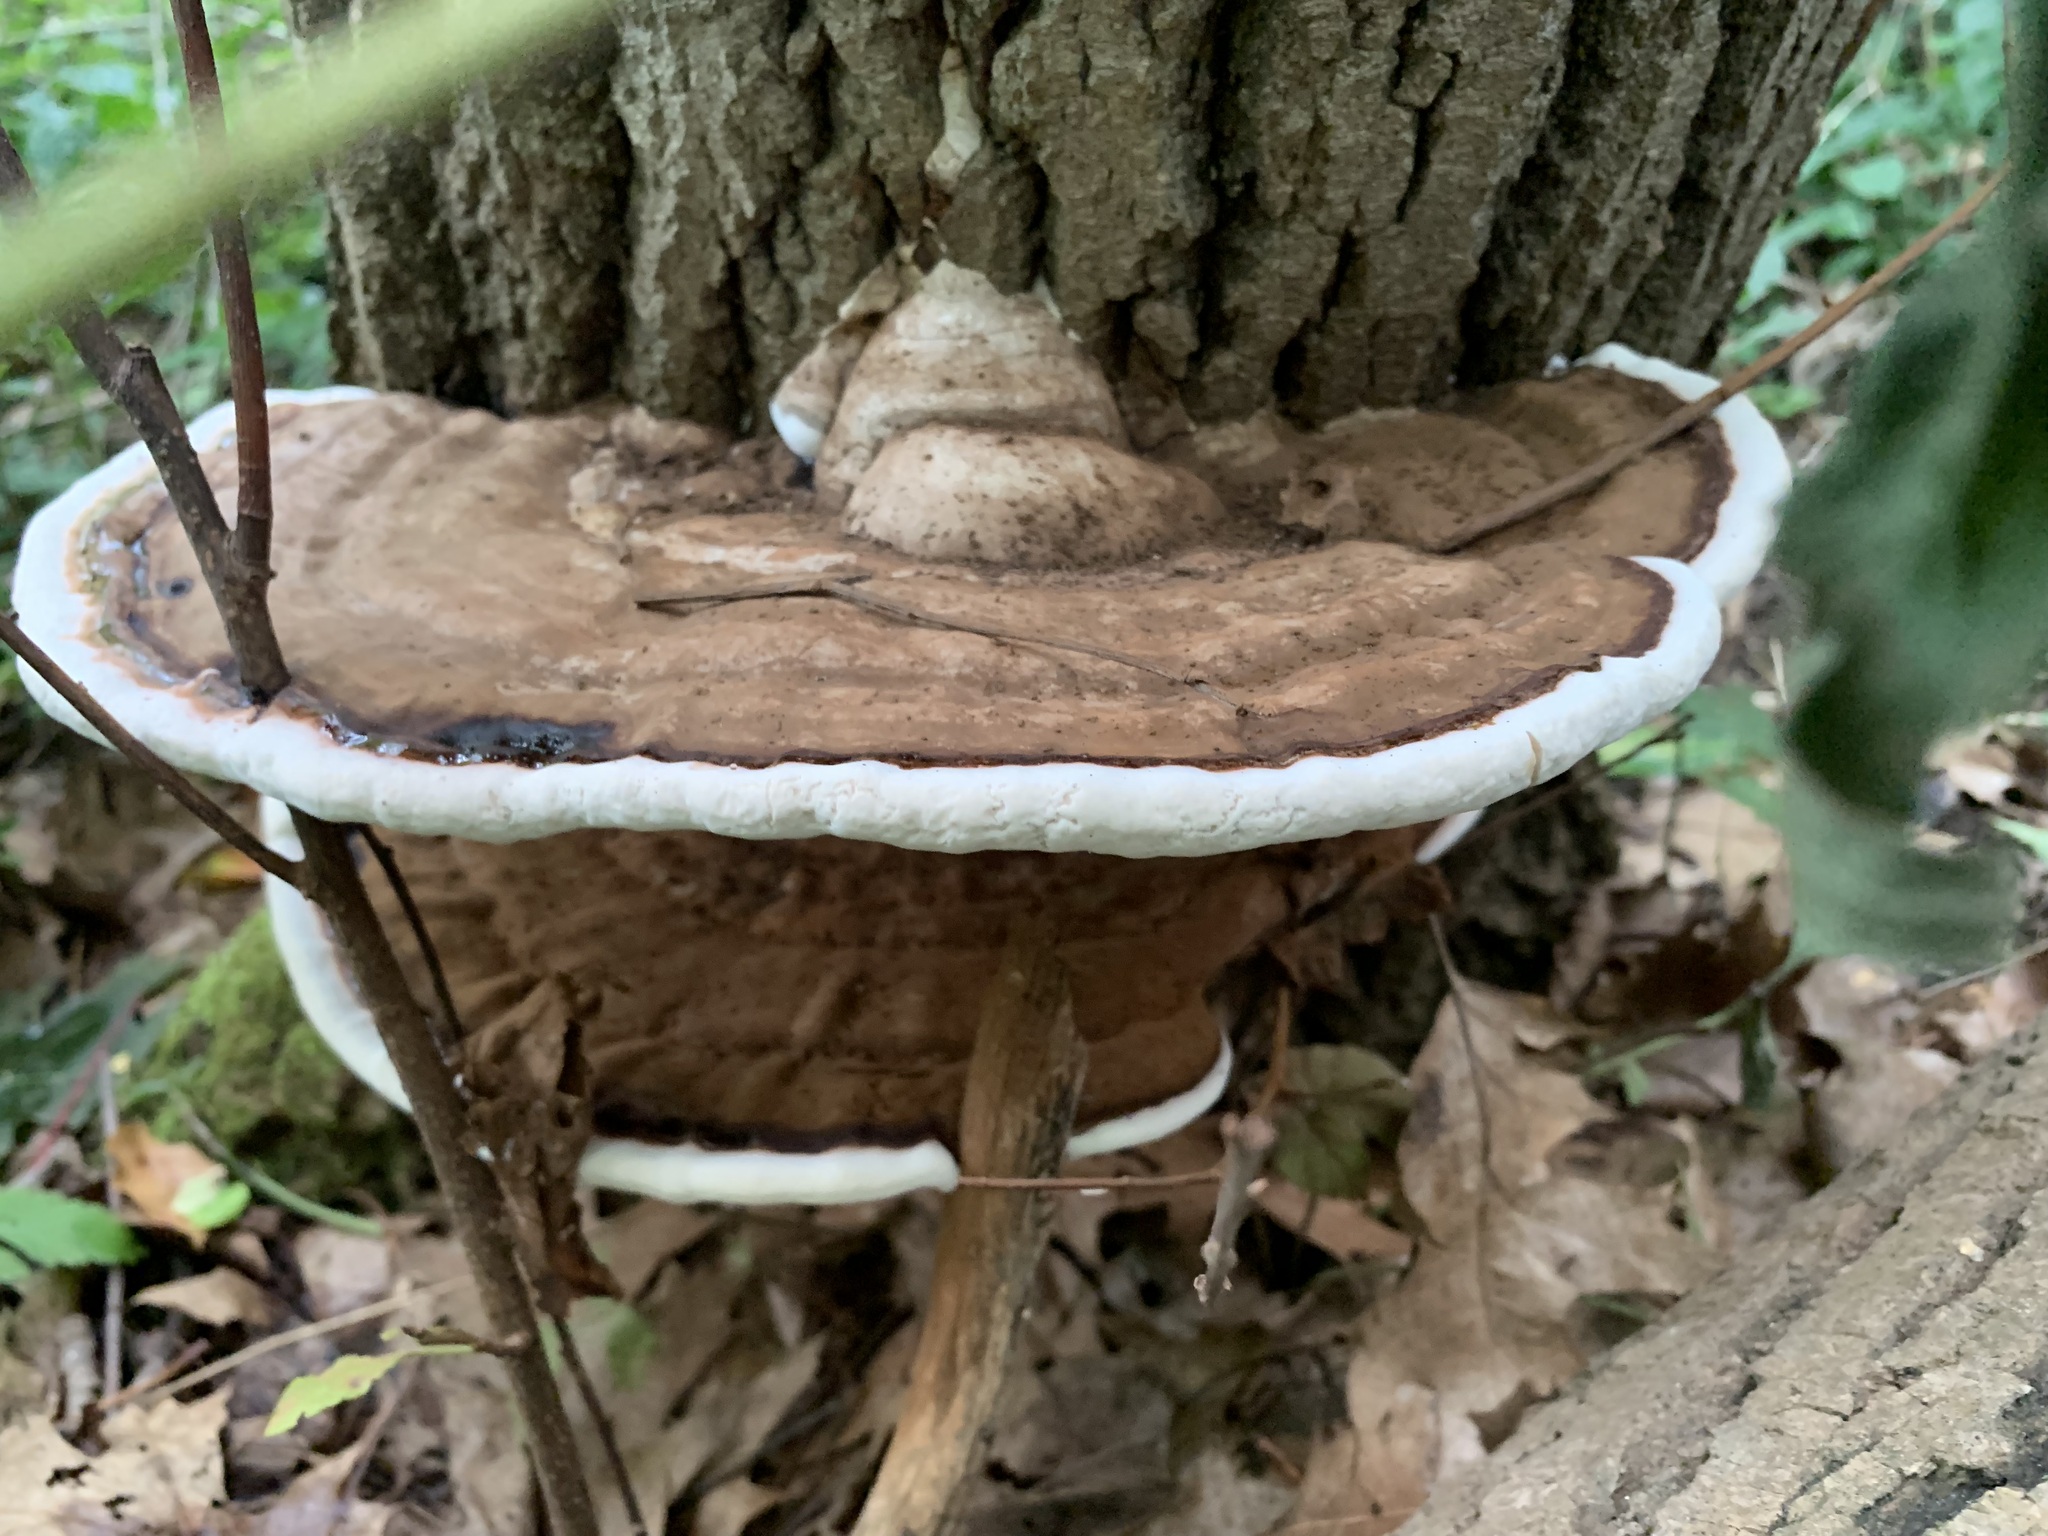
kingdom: Fungi
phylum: Basidiomycota
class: Agaricomycetes
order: Polyporales
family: Polyporaceae
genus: Ganoderma
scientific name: Ganoderma applanatum
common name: Artist's bracket
